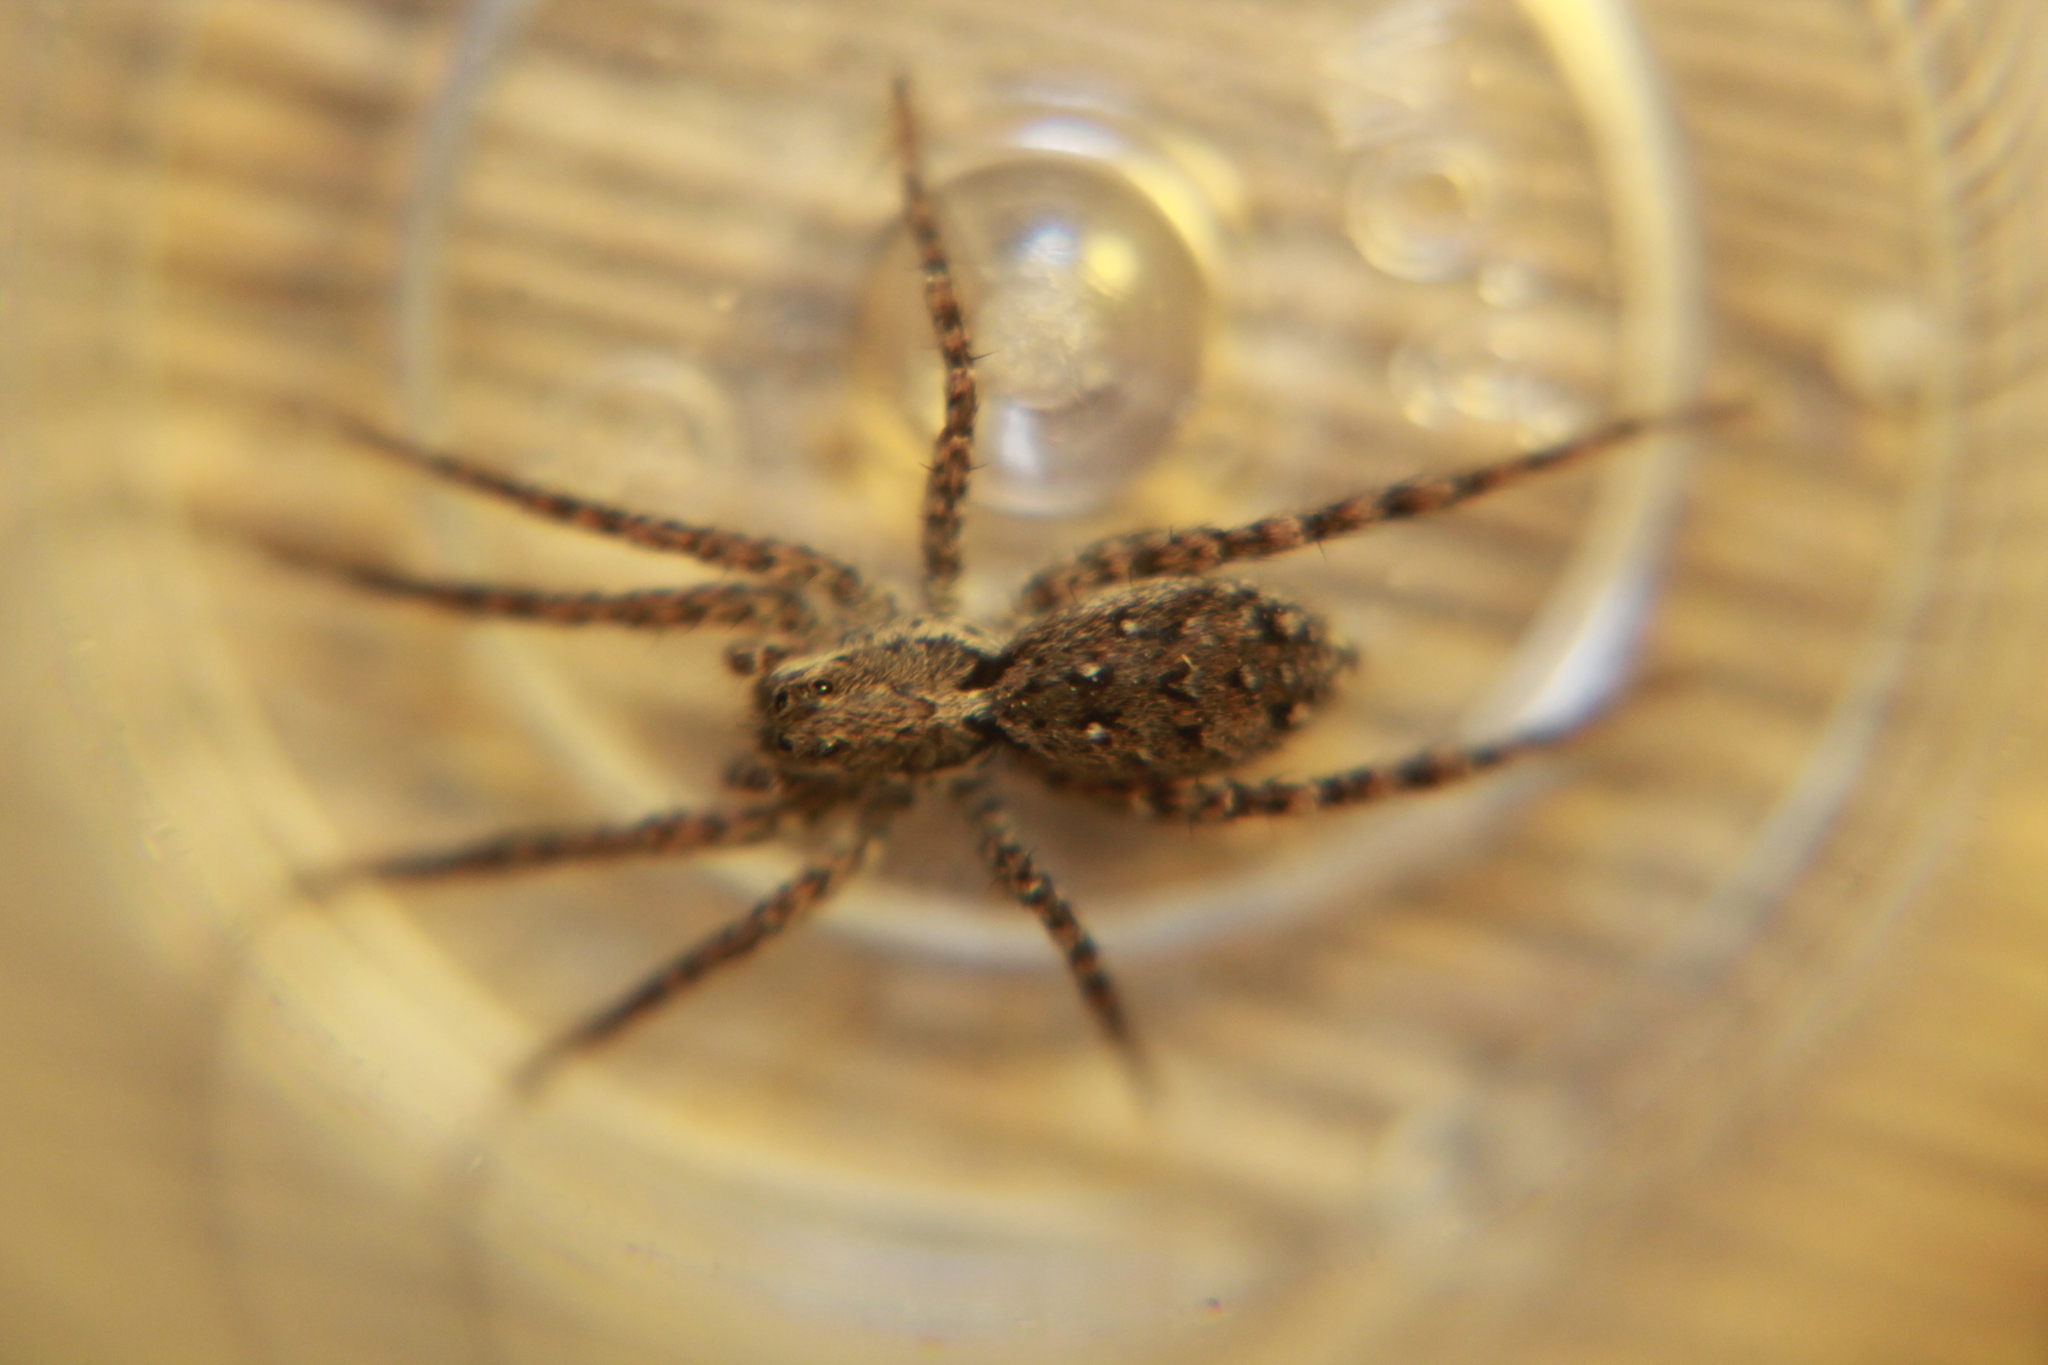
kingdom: Animalia
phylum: Arthropoda
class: Arachnida
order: Araneae
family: Lycosidae
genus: Hogna
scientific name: Hogna crispipes
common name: Wolf spider
